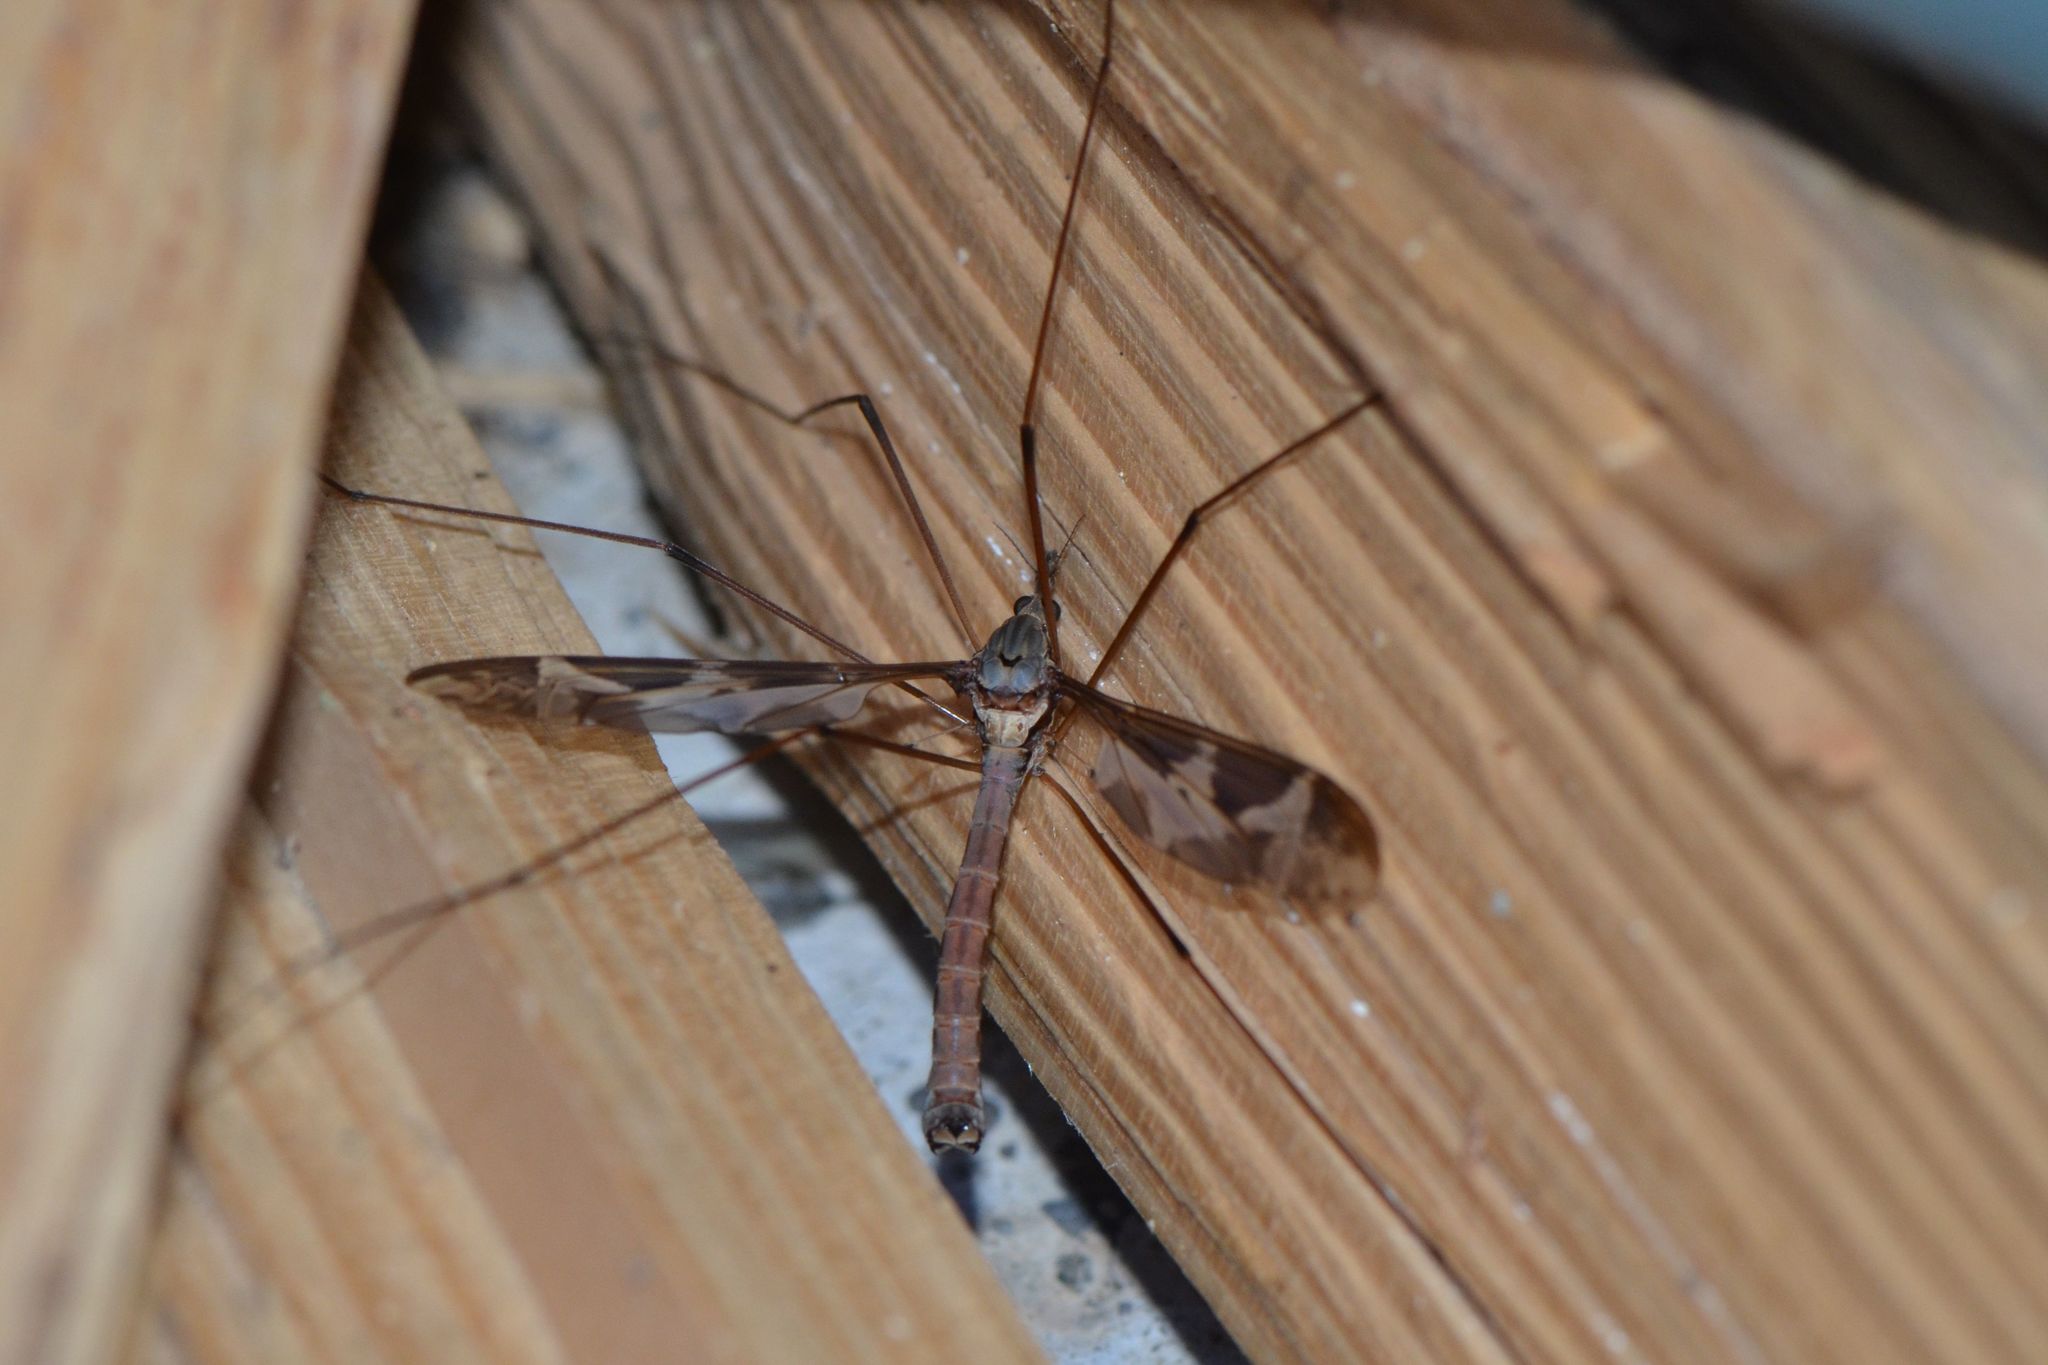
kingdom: Animalia
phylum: Arthropoda
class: Insecta
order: Diptera
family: Tipulidae
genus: Tipula
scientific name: Tipula maxima
